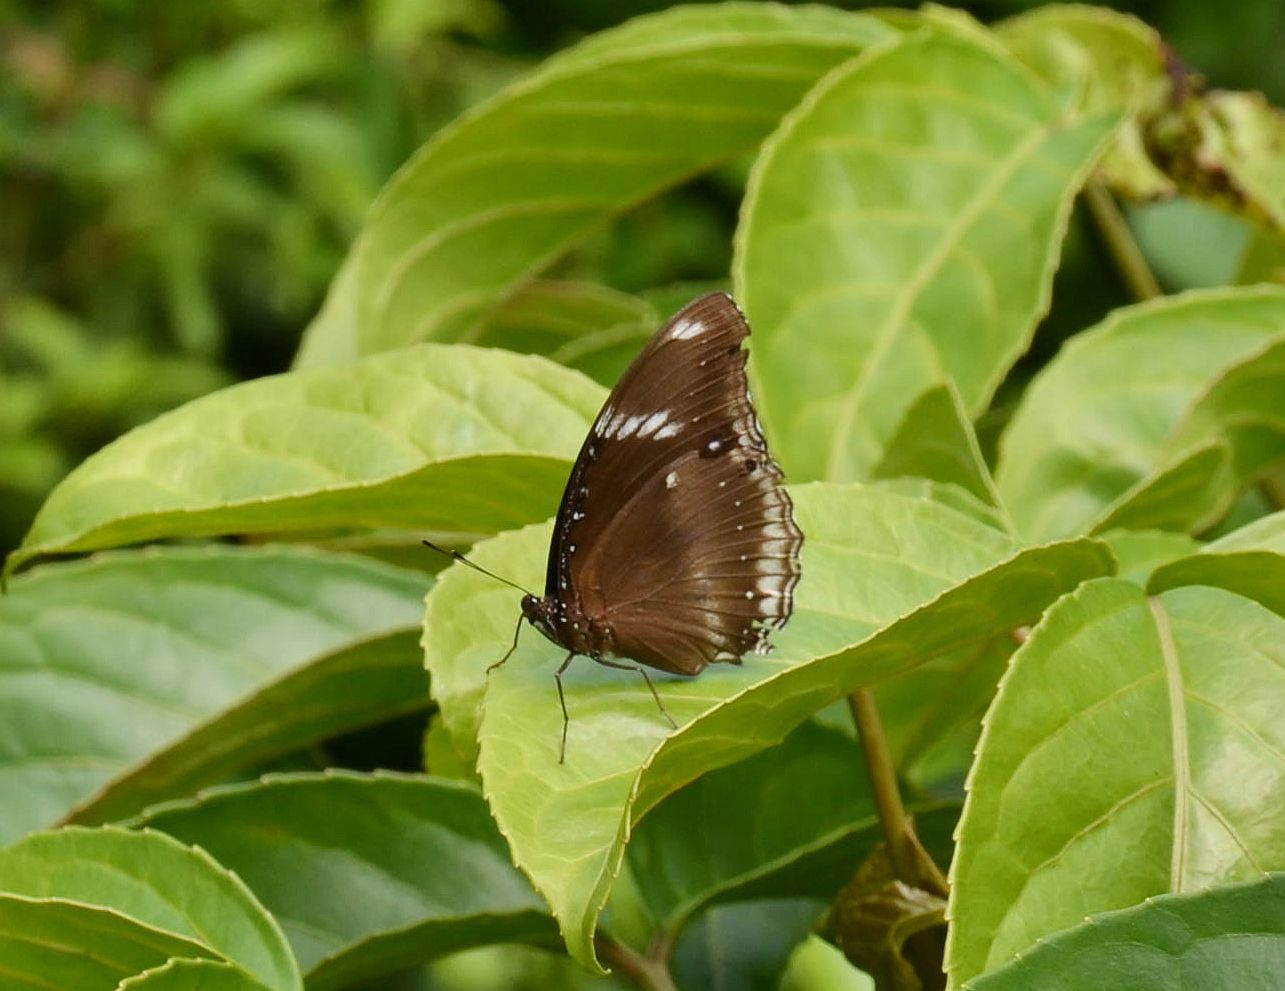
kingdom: Animalia
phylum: Arthropoda
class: Insecta
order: Lepidoptera
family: Nymphalidae
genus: Hypolimnas
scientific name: Hypolimnas bolina
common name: Great eggfly
